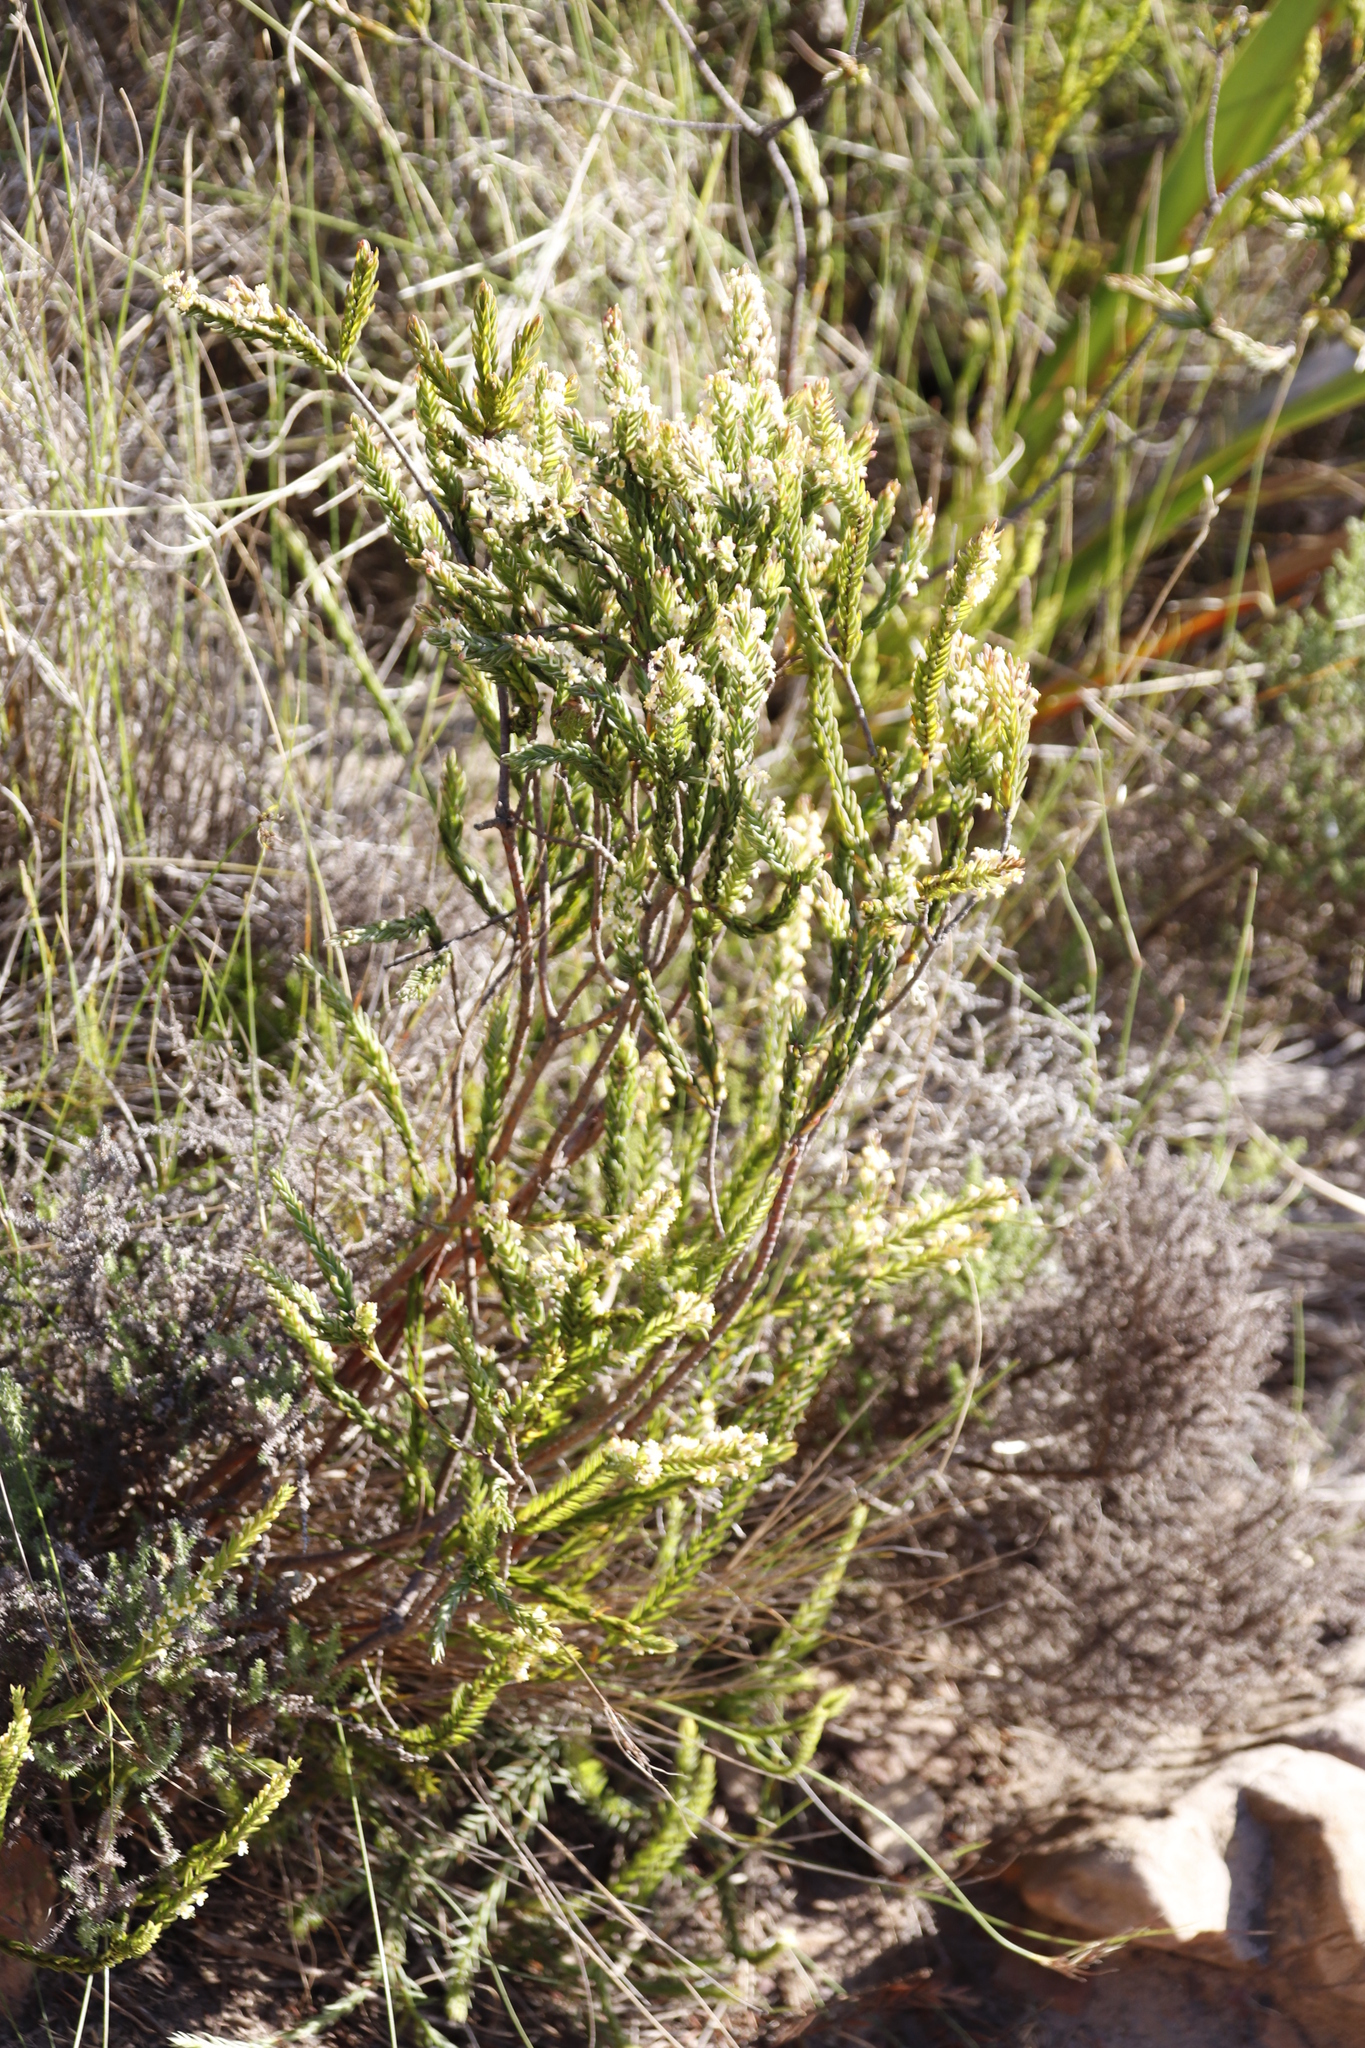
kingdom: Plantae
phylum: Tracheophyta
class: Magnoliopsida
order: Malvales
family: Thymelaeaceae
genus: Struthiola
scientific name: Struthiola ciliata
